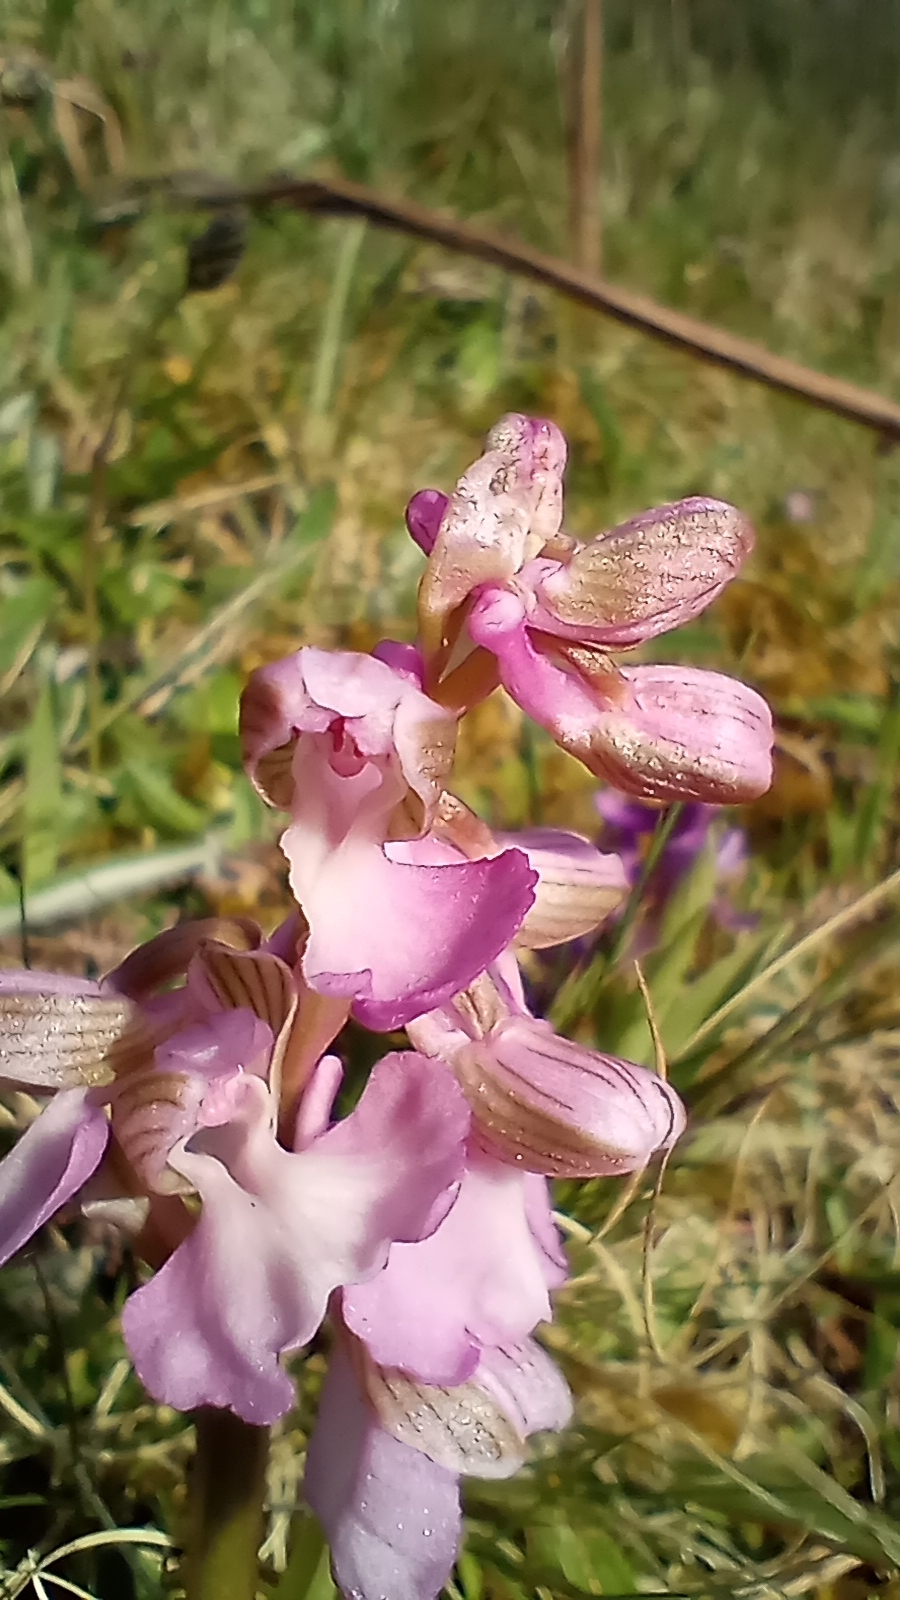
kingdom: Plantae
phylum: Tracheophyta
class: Liliopsida
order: Asparagales
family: Orchidaceae
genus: Anacamptis
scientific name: Anacamptis morio
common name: Green-winged orchid
